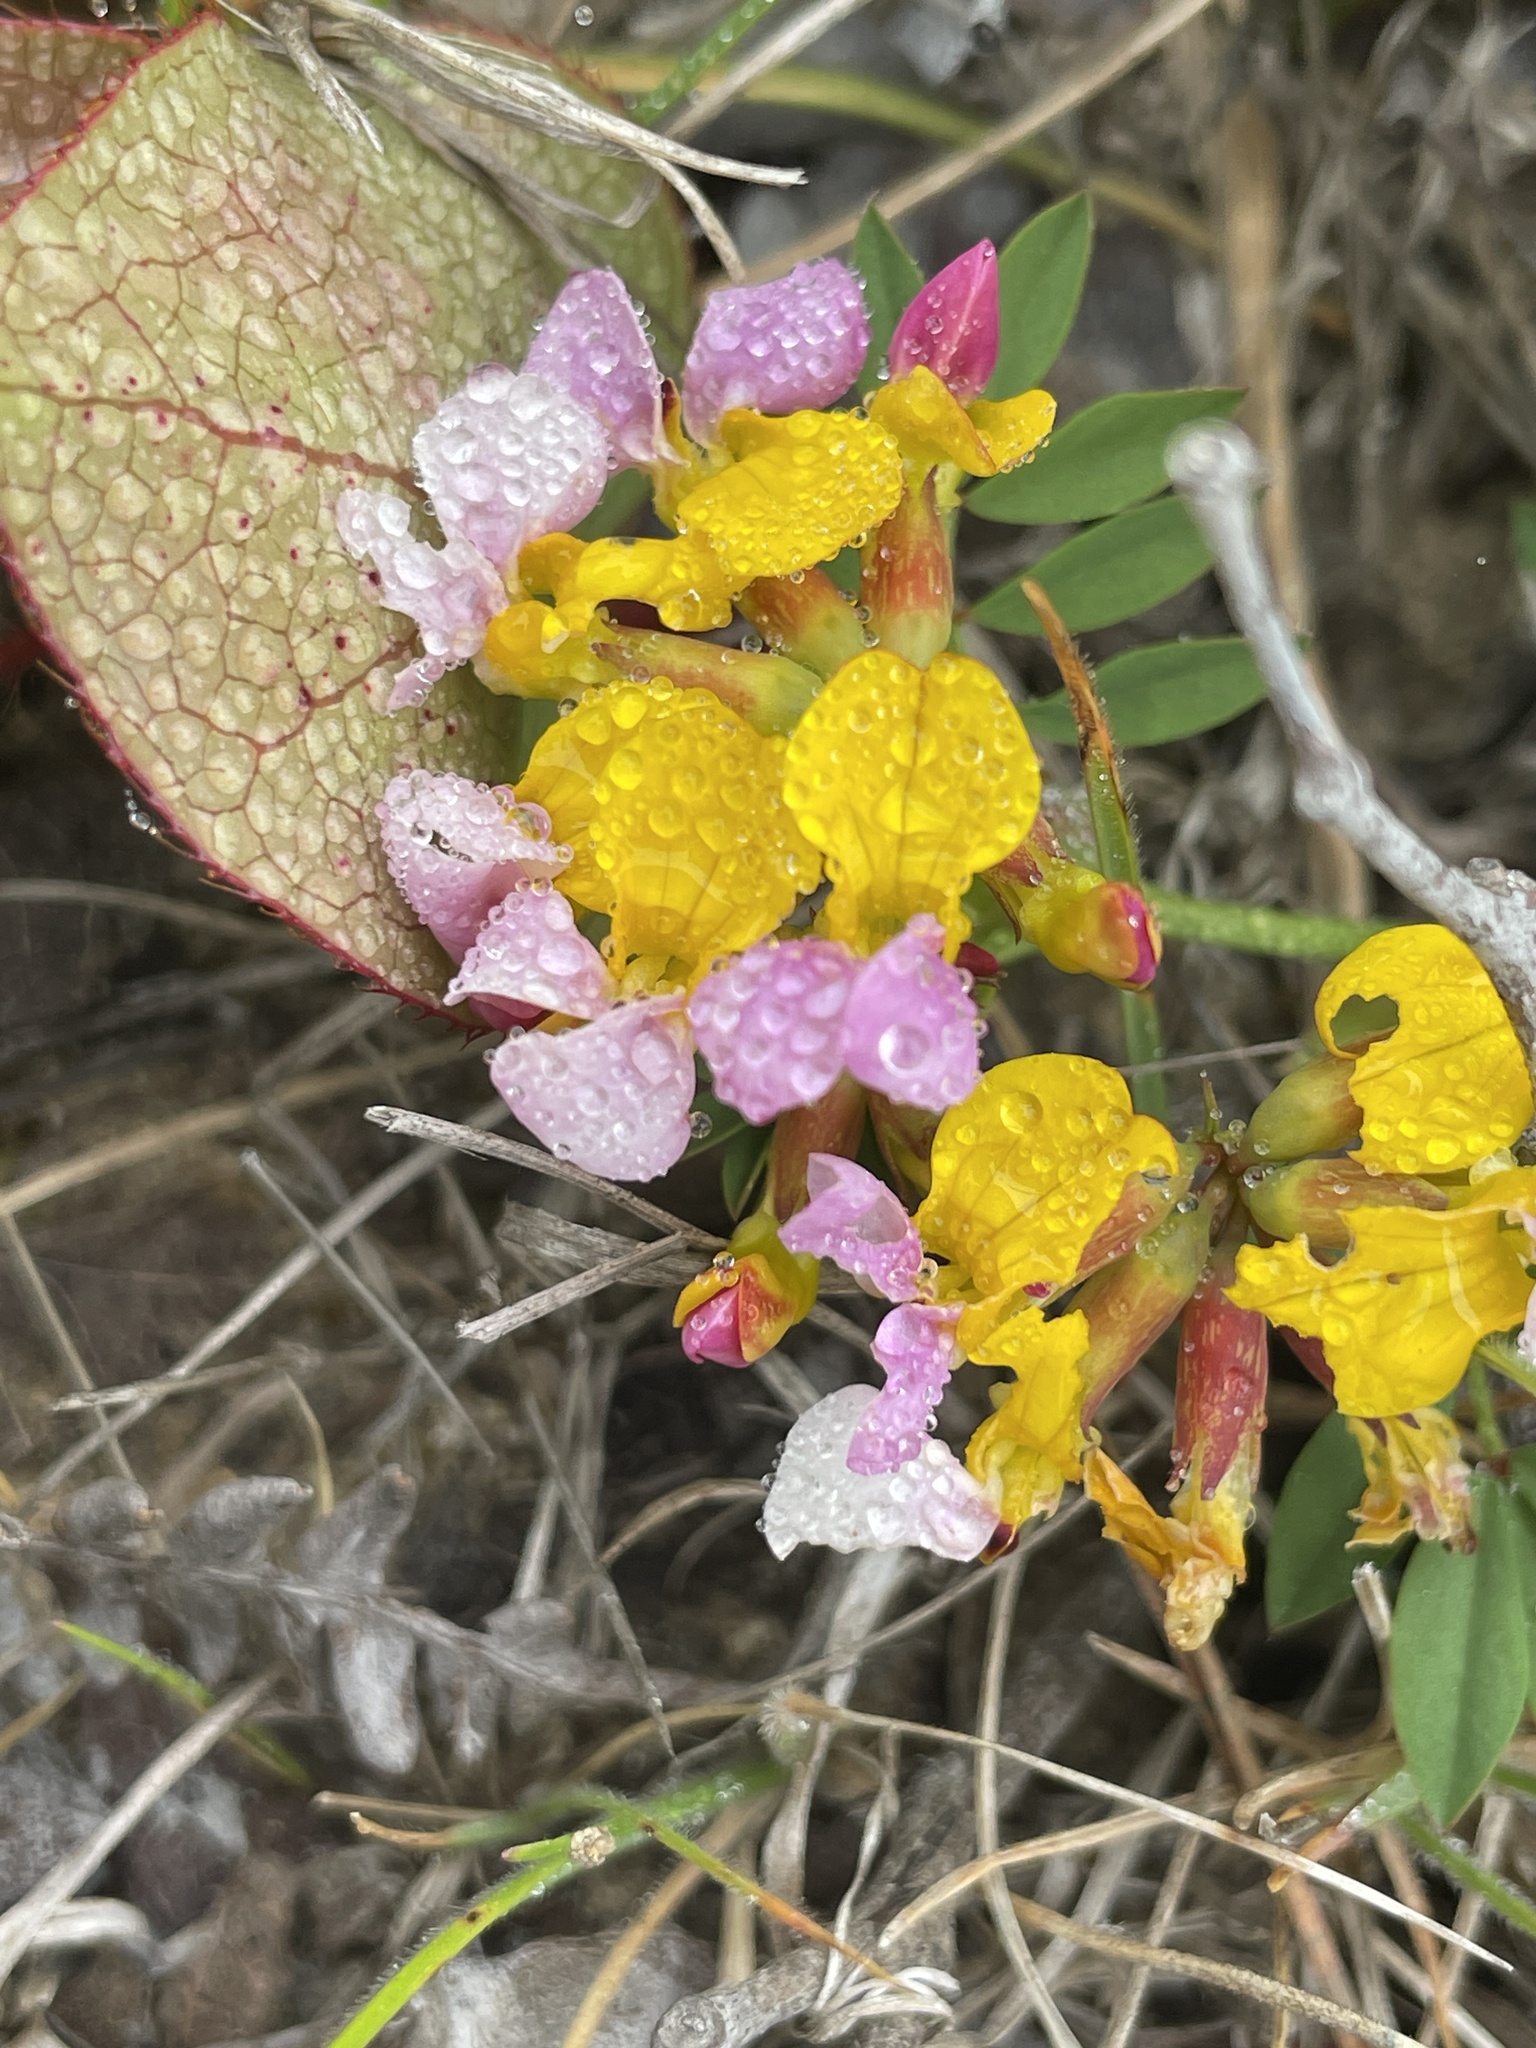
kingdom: Plantae
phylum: Tracheophyta
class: Magnoliopsida
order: Fabales
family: Fabaceae
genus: Hosackia
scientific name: Hosackia gracilis
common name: Seaside bird's-foot lotus
